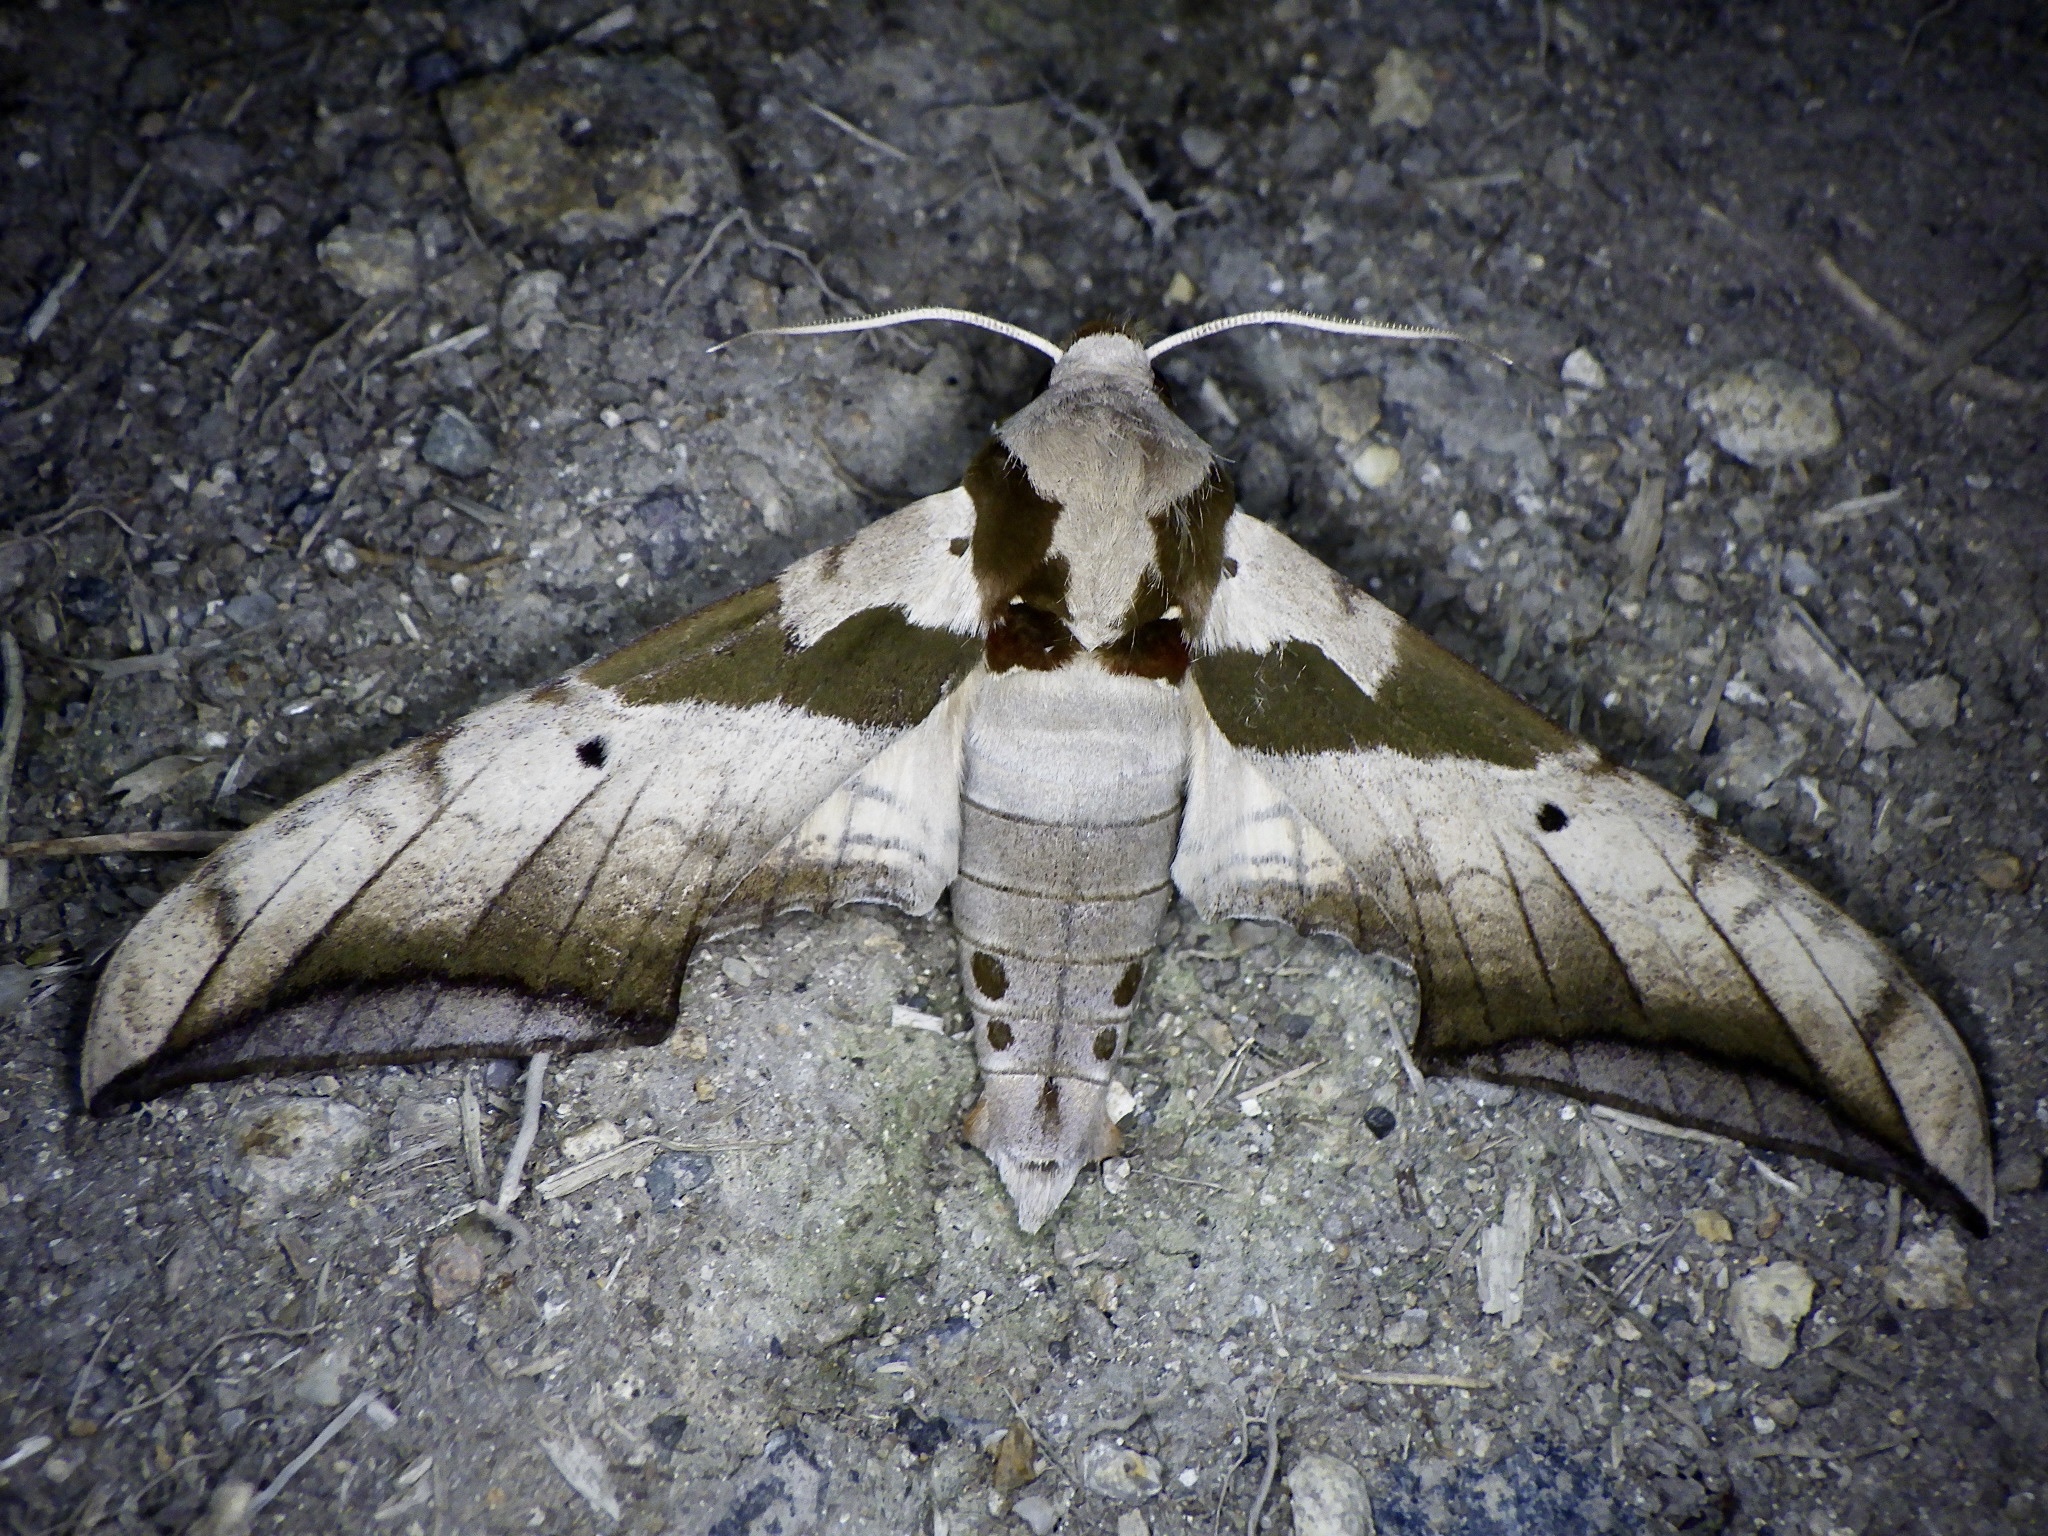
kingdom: Animalia
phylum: Arthropoda
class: Insecta
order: Lepidoptera
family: Sphingidae
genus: Ambulyx
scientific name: Ambulyx japonica
